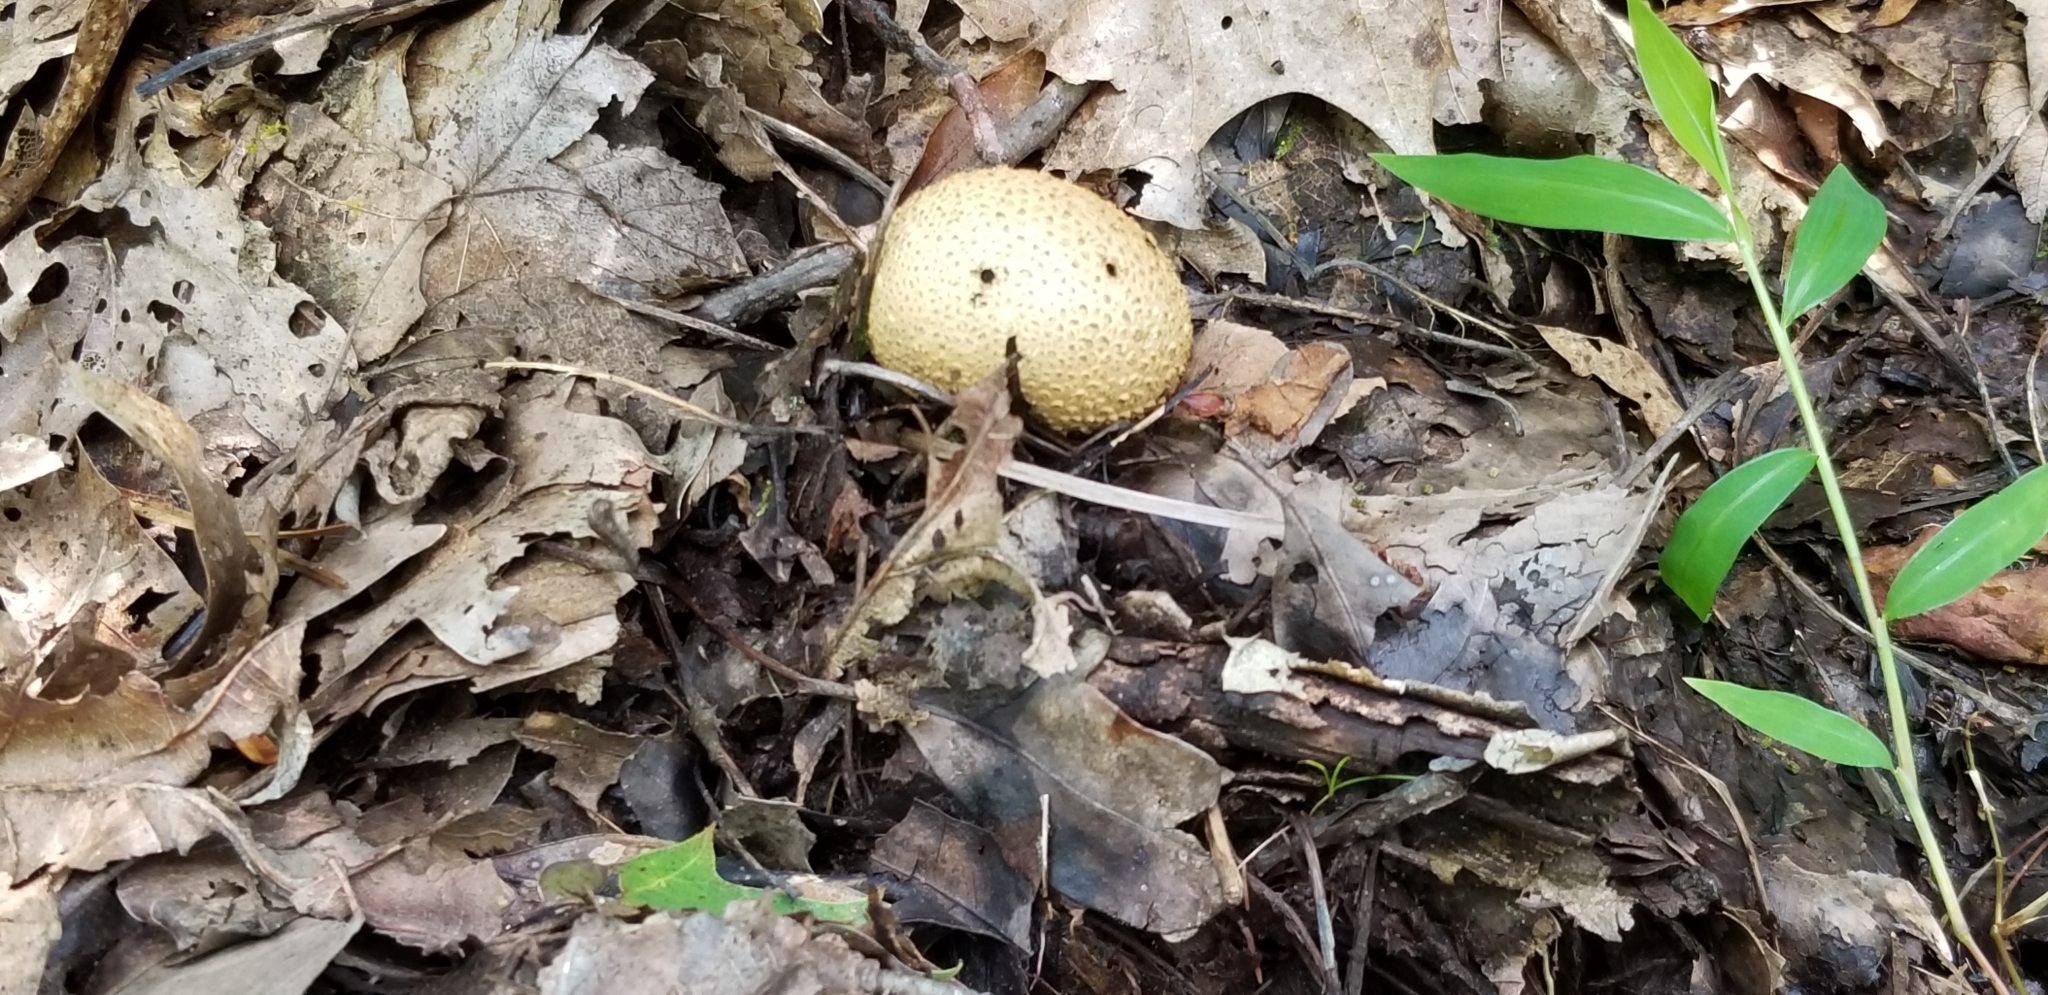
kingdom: Fungi
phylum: Basidiomycota
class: Agaricomycetes
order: Boletales
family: Sclerodermataceae
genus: Scleroderma
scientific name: Scleroderma citrinum
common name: Common earthball
